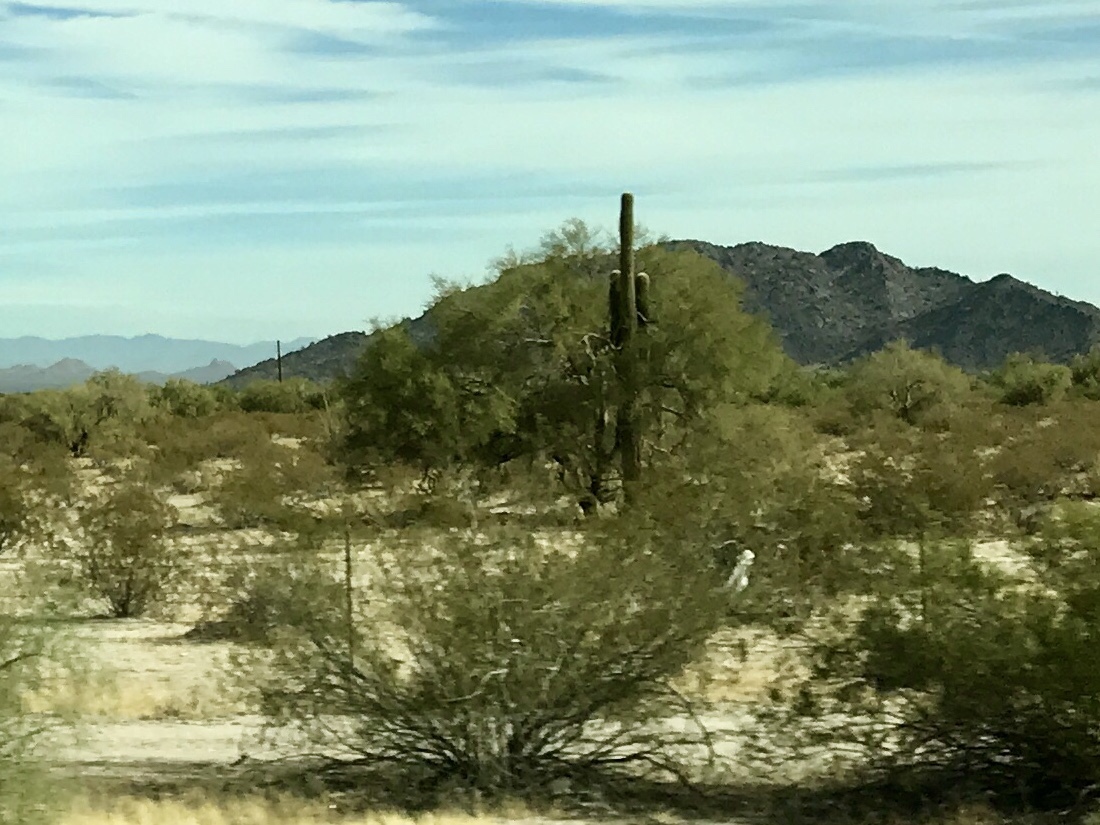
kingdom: Plantae
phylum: Tracheophyta
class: Magnoliopsida
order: Caryophyllales
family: Cactaceae
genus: Carnegiea
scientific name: Carnegiea gigantea
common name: Saguaro
